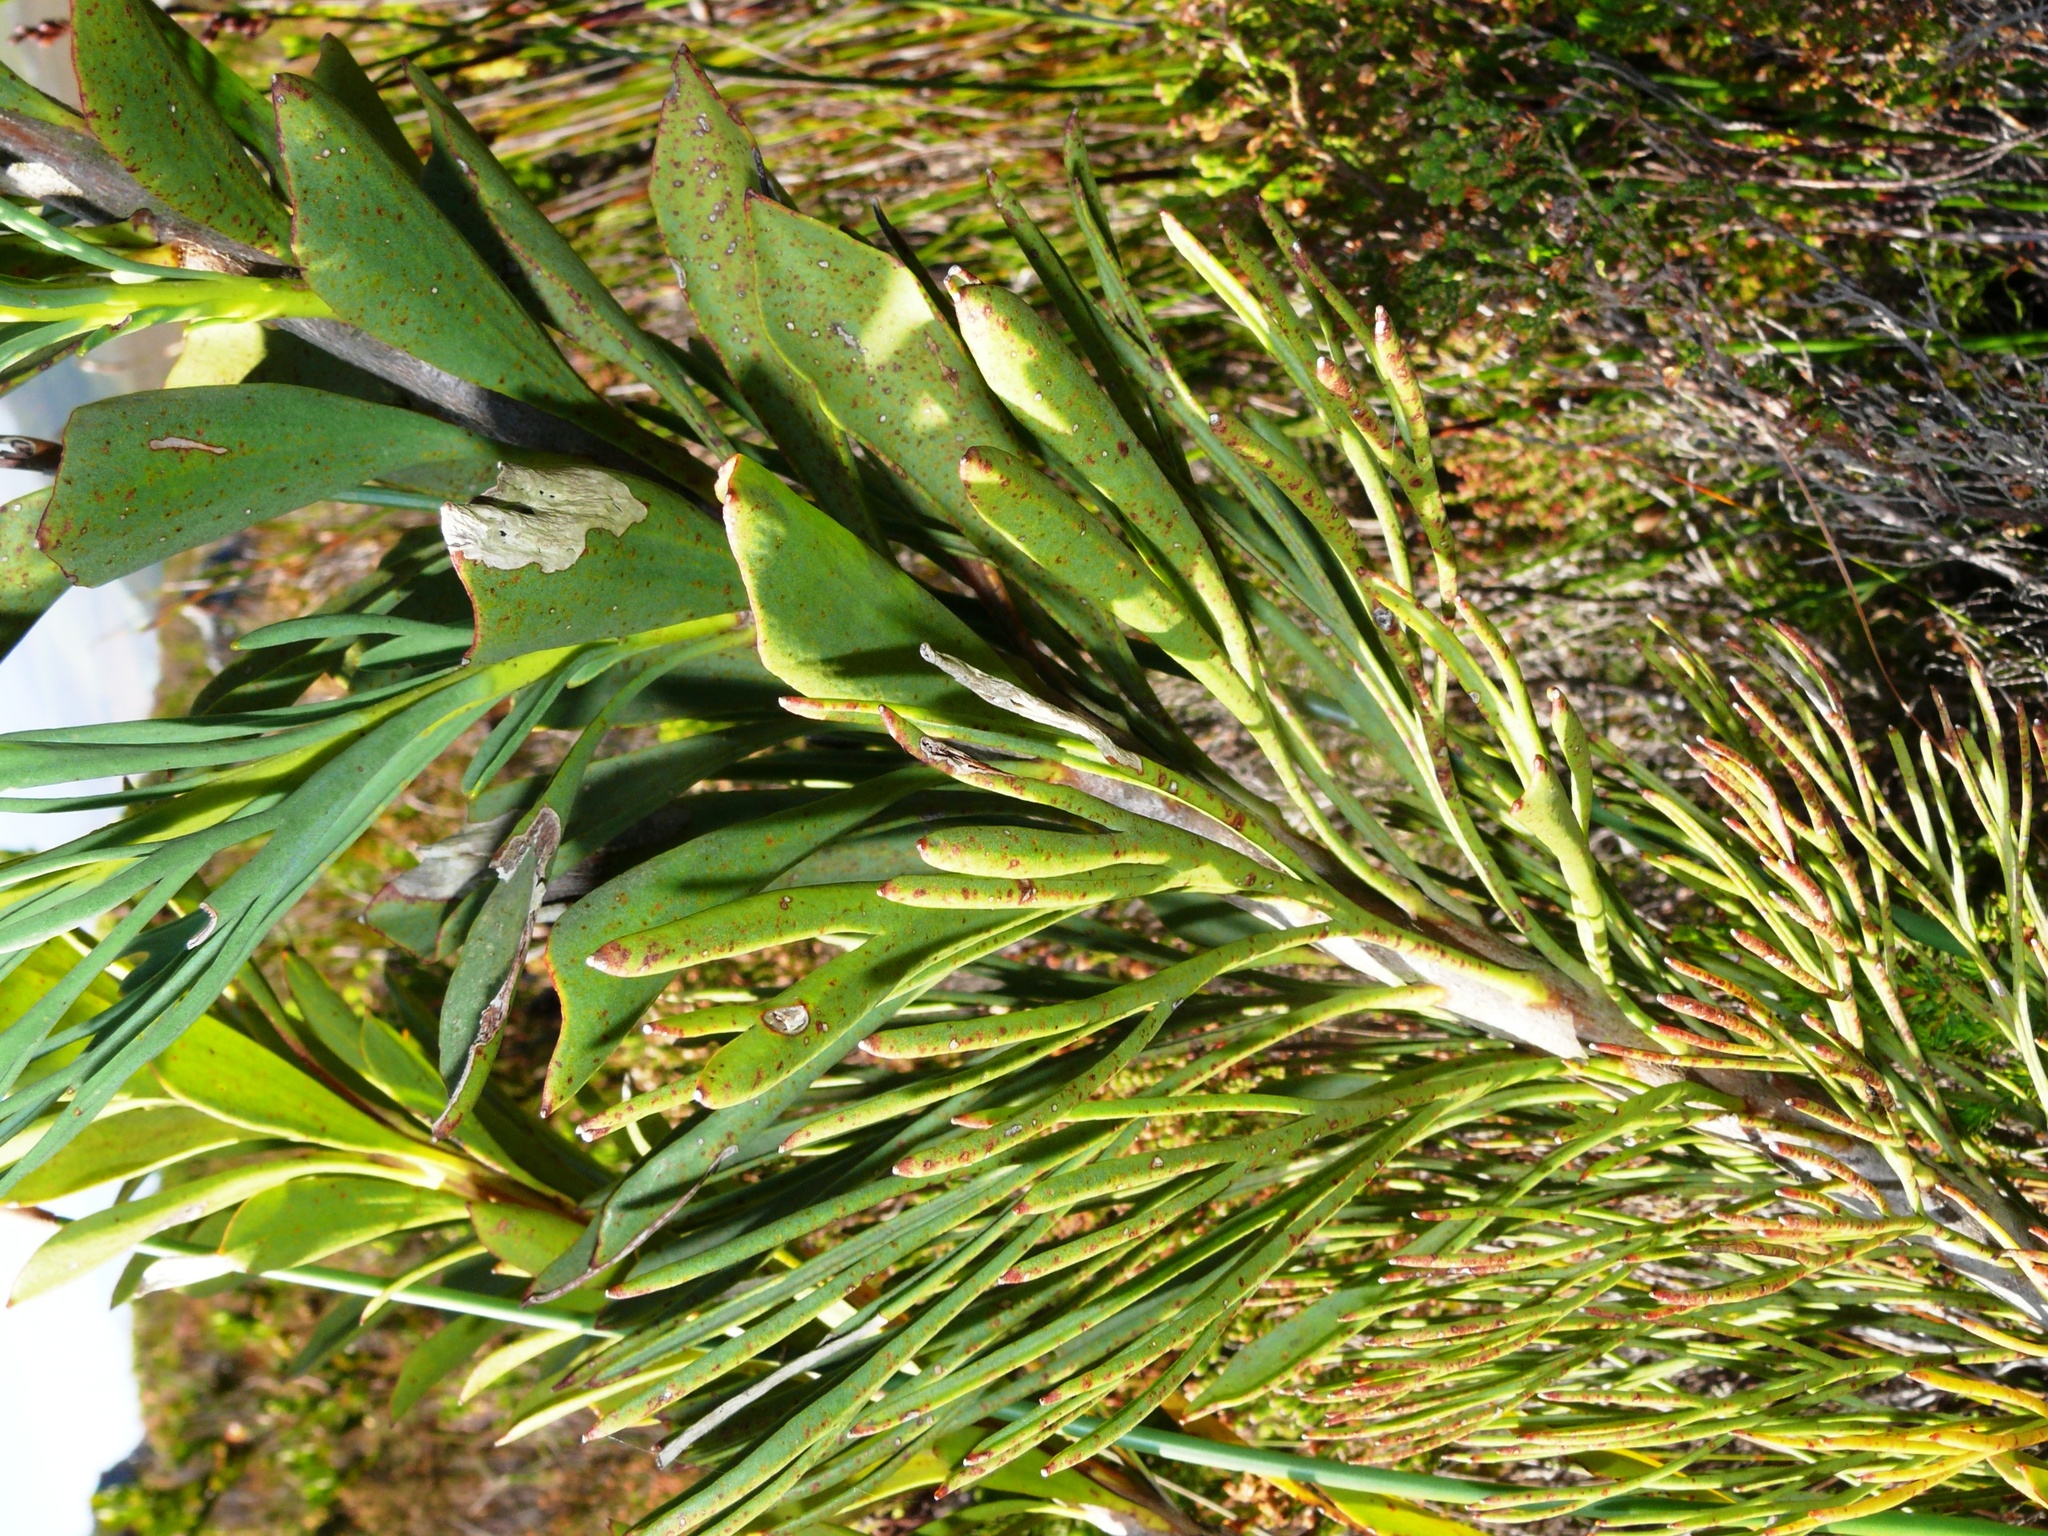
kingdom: Plantae
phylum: Tracheophyta
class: Magnoliopsida
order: Proteales
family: Proteaceae
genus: Paranomus
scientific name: Paranomus sceptrum-gustavianus
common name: King gustav's sceptre
